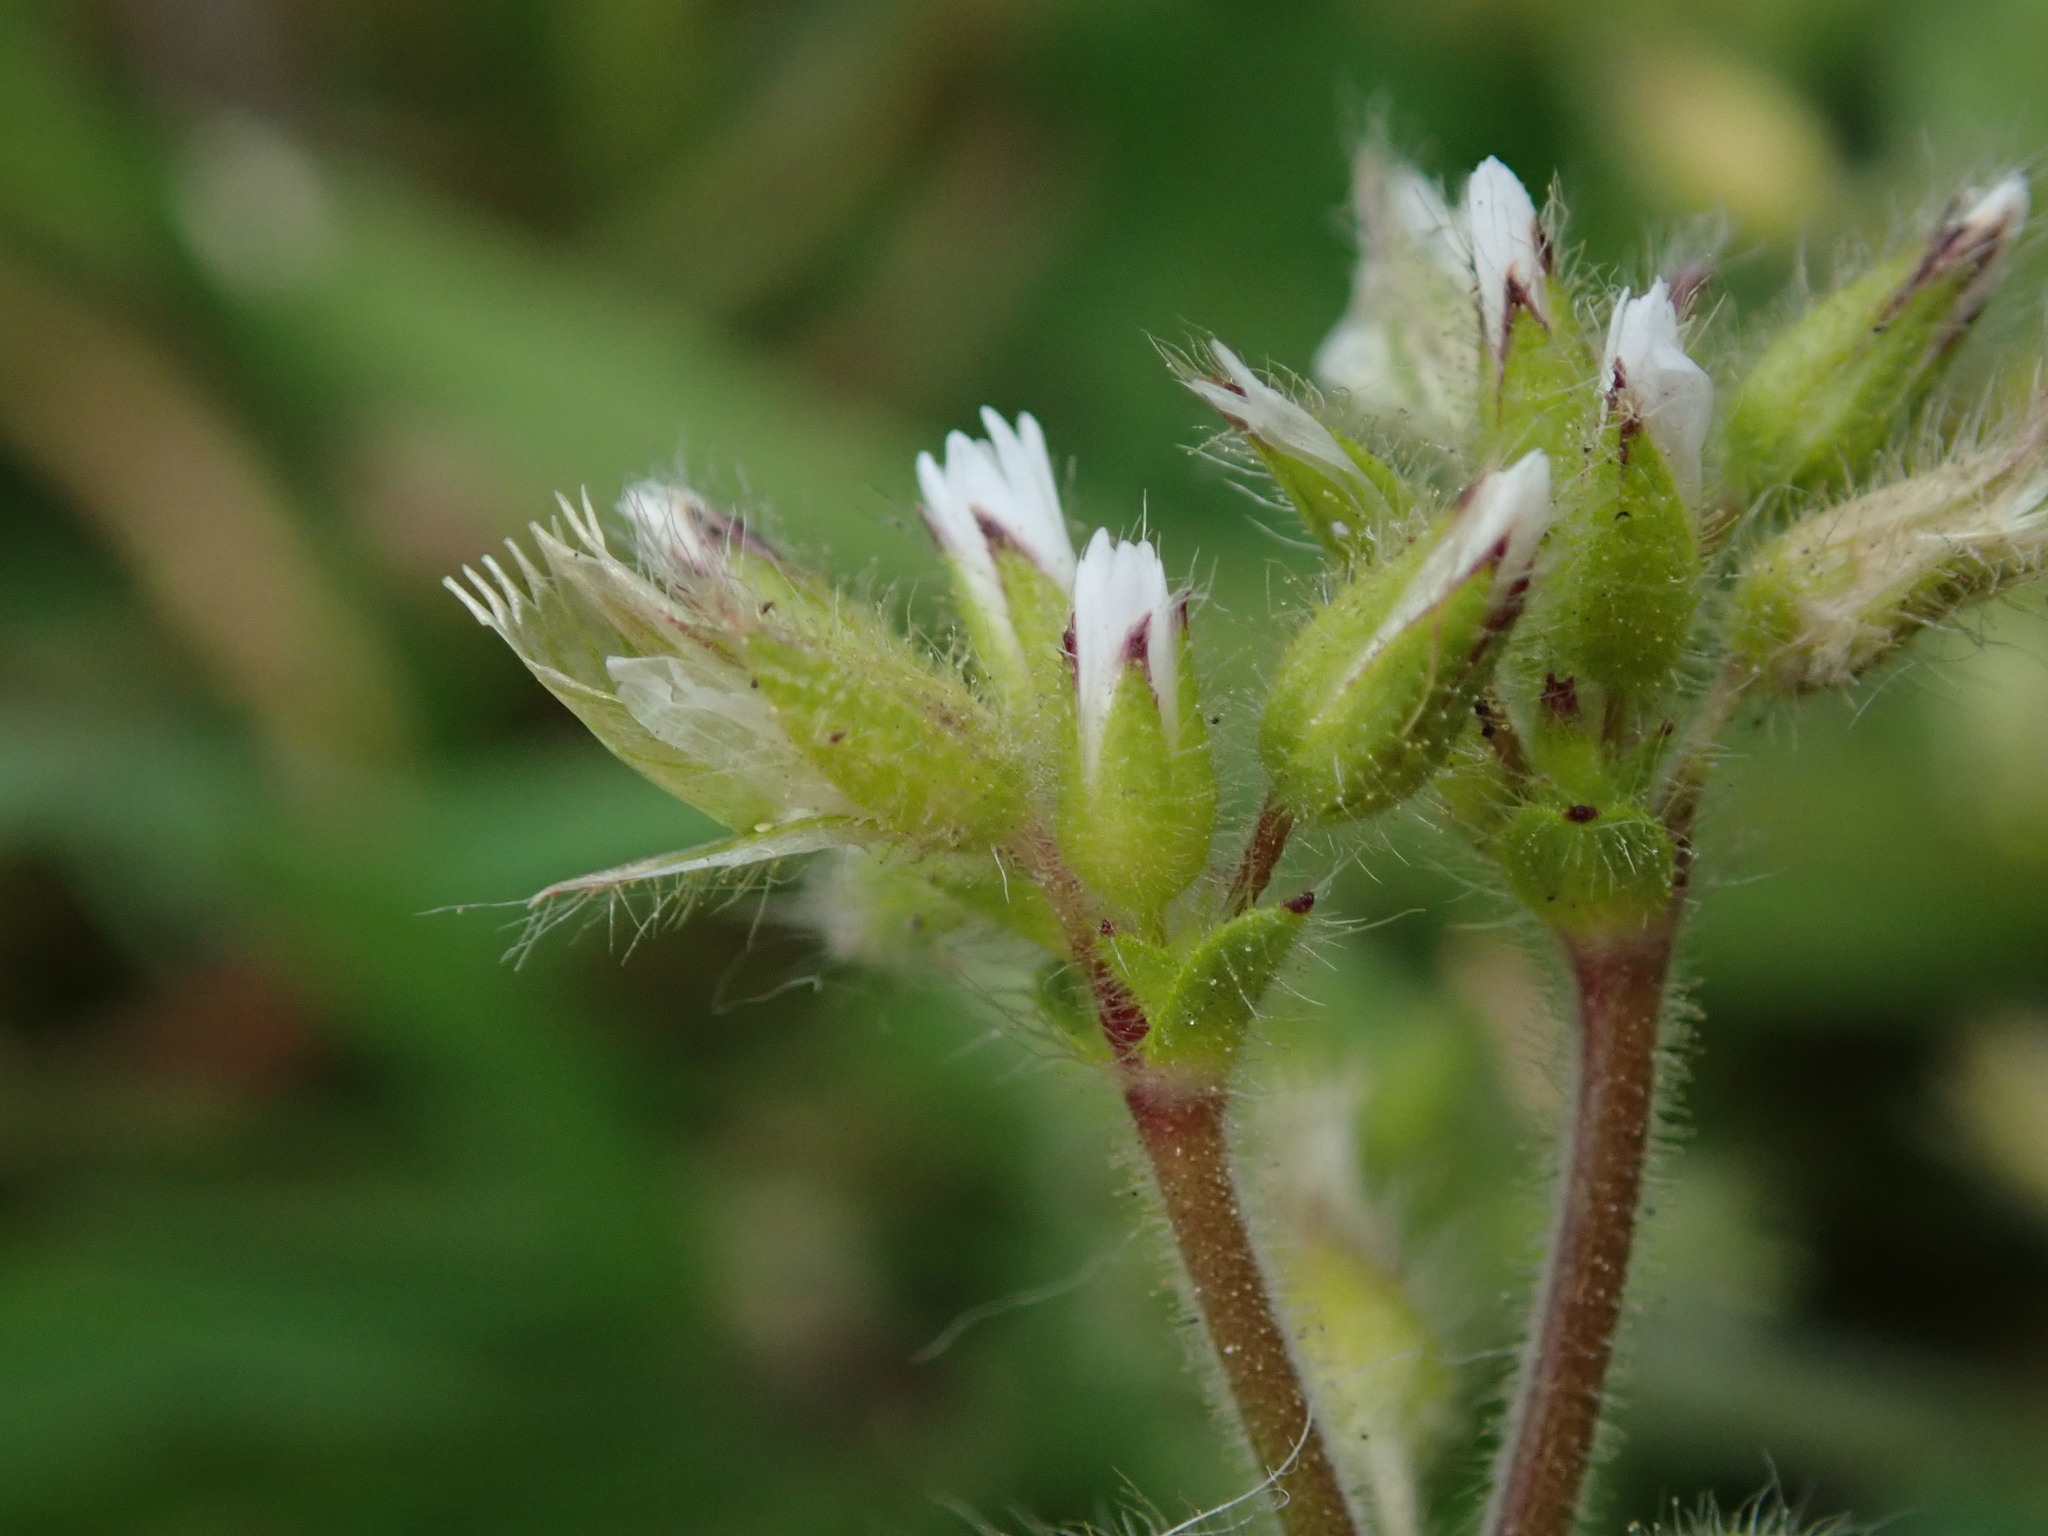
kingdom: Plantae
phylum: Tracheophyta
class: Magnoliopsida
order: Caryophyllales
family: Caryophyllaceae
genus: Cerastium
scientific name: Cerastium glomeratum
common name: Sticky chickweed
